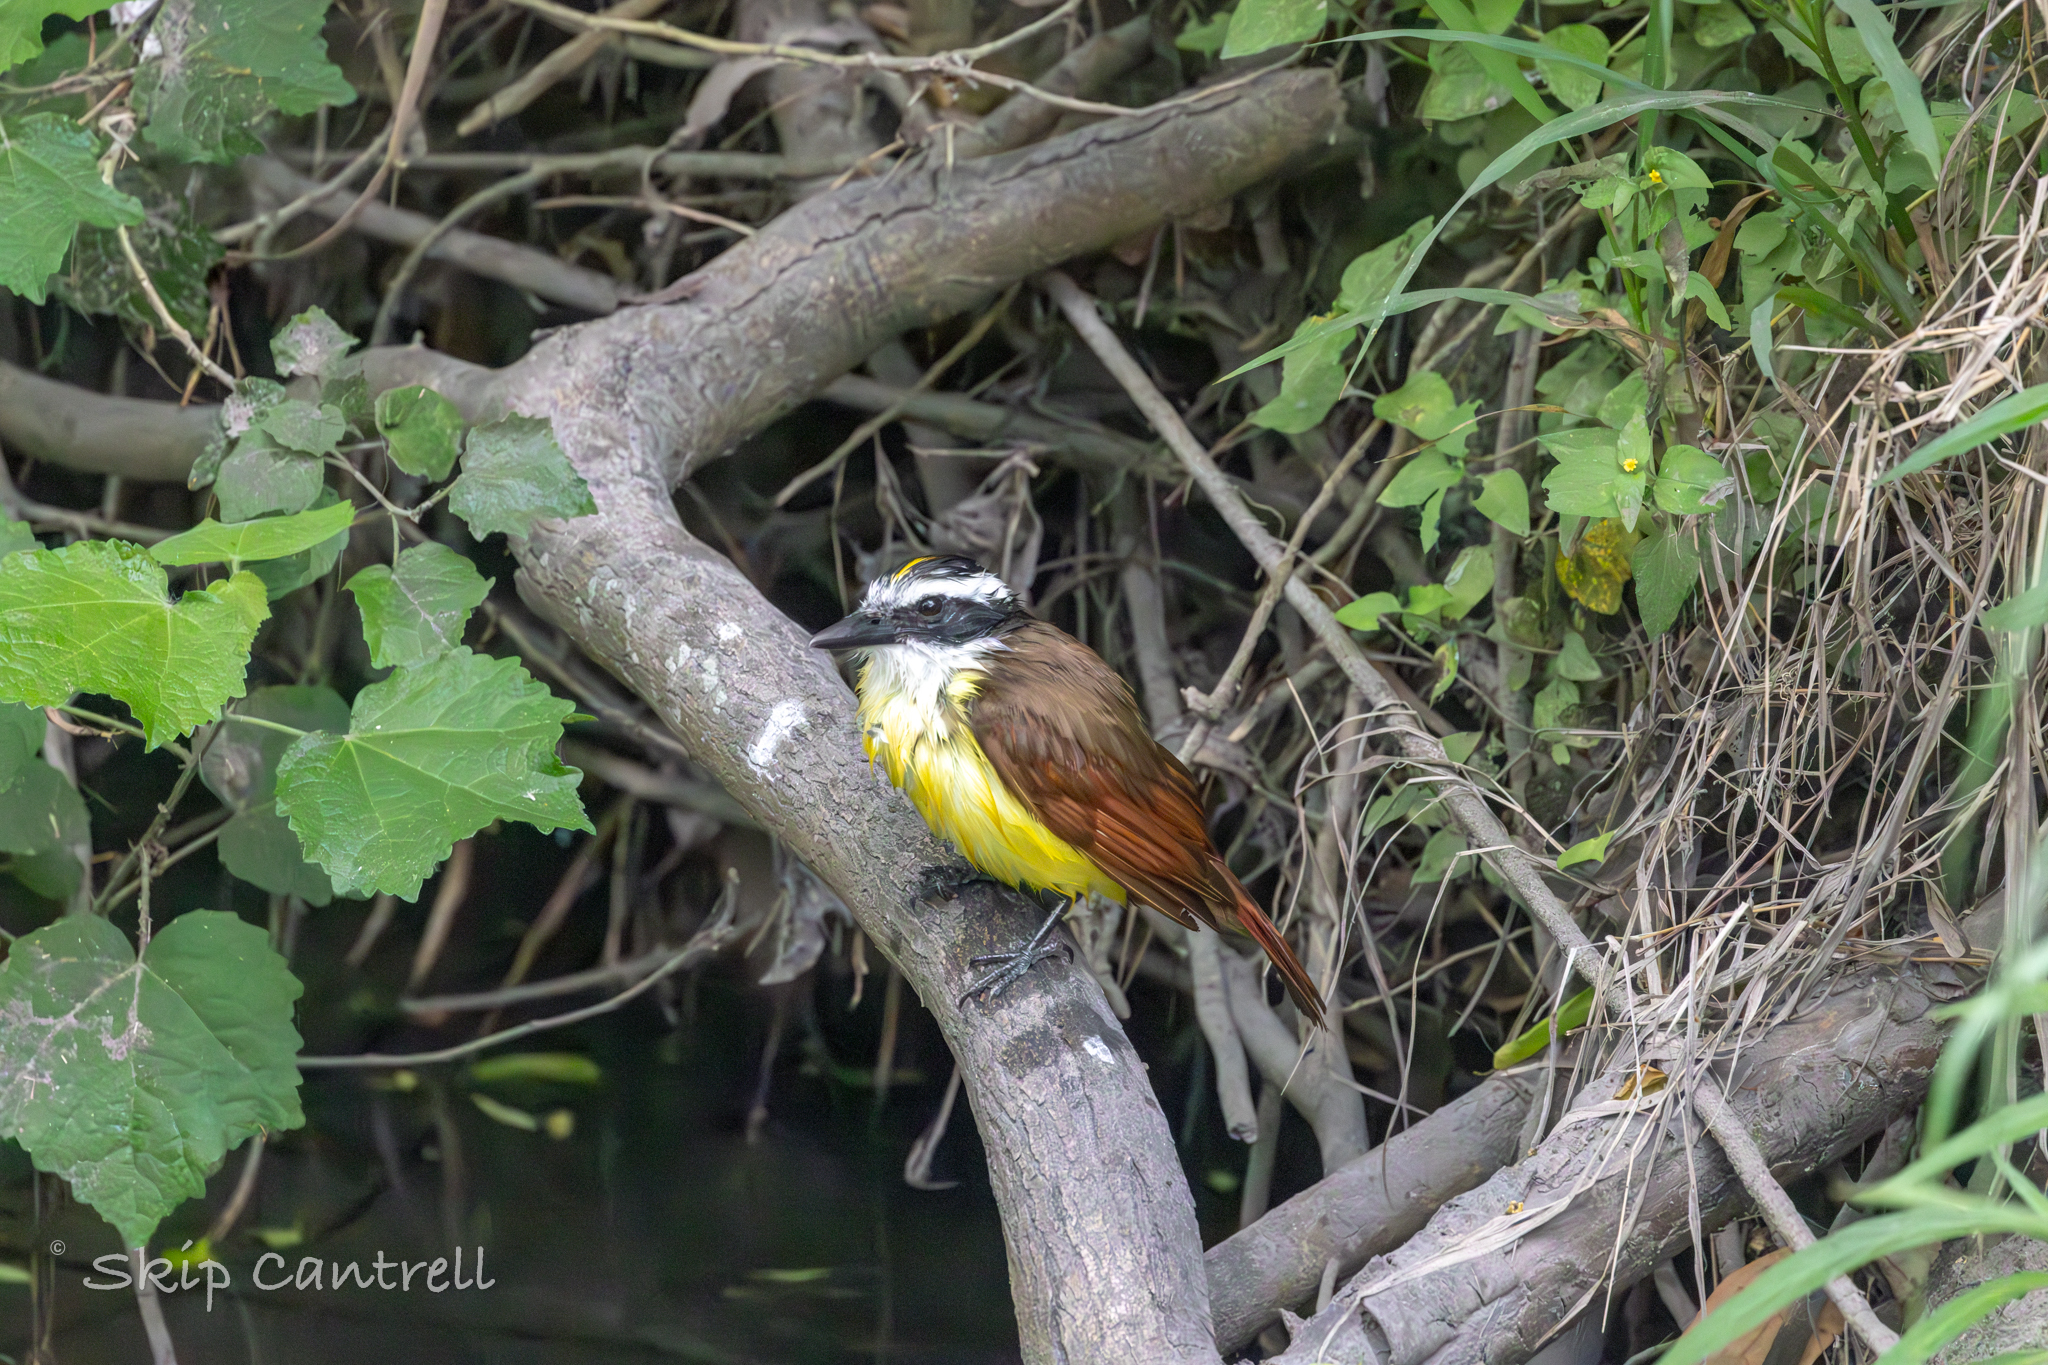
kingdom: Animalia
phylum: Chordata
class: Aves
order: Passeriformes
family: Tyrannidae
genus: Pitangus
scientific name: Pitangus sulphuratus
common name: Great kiskadee
